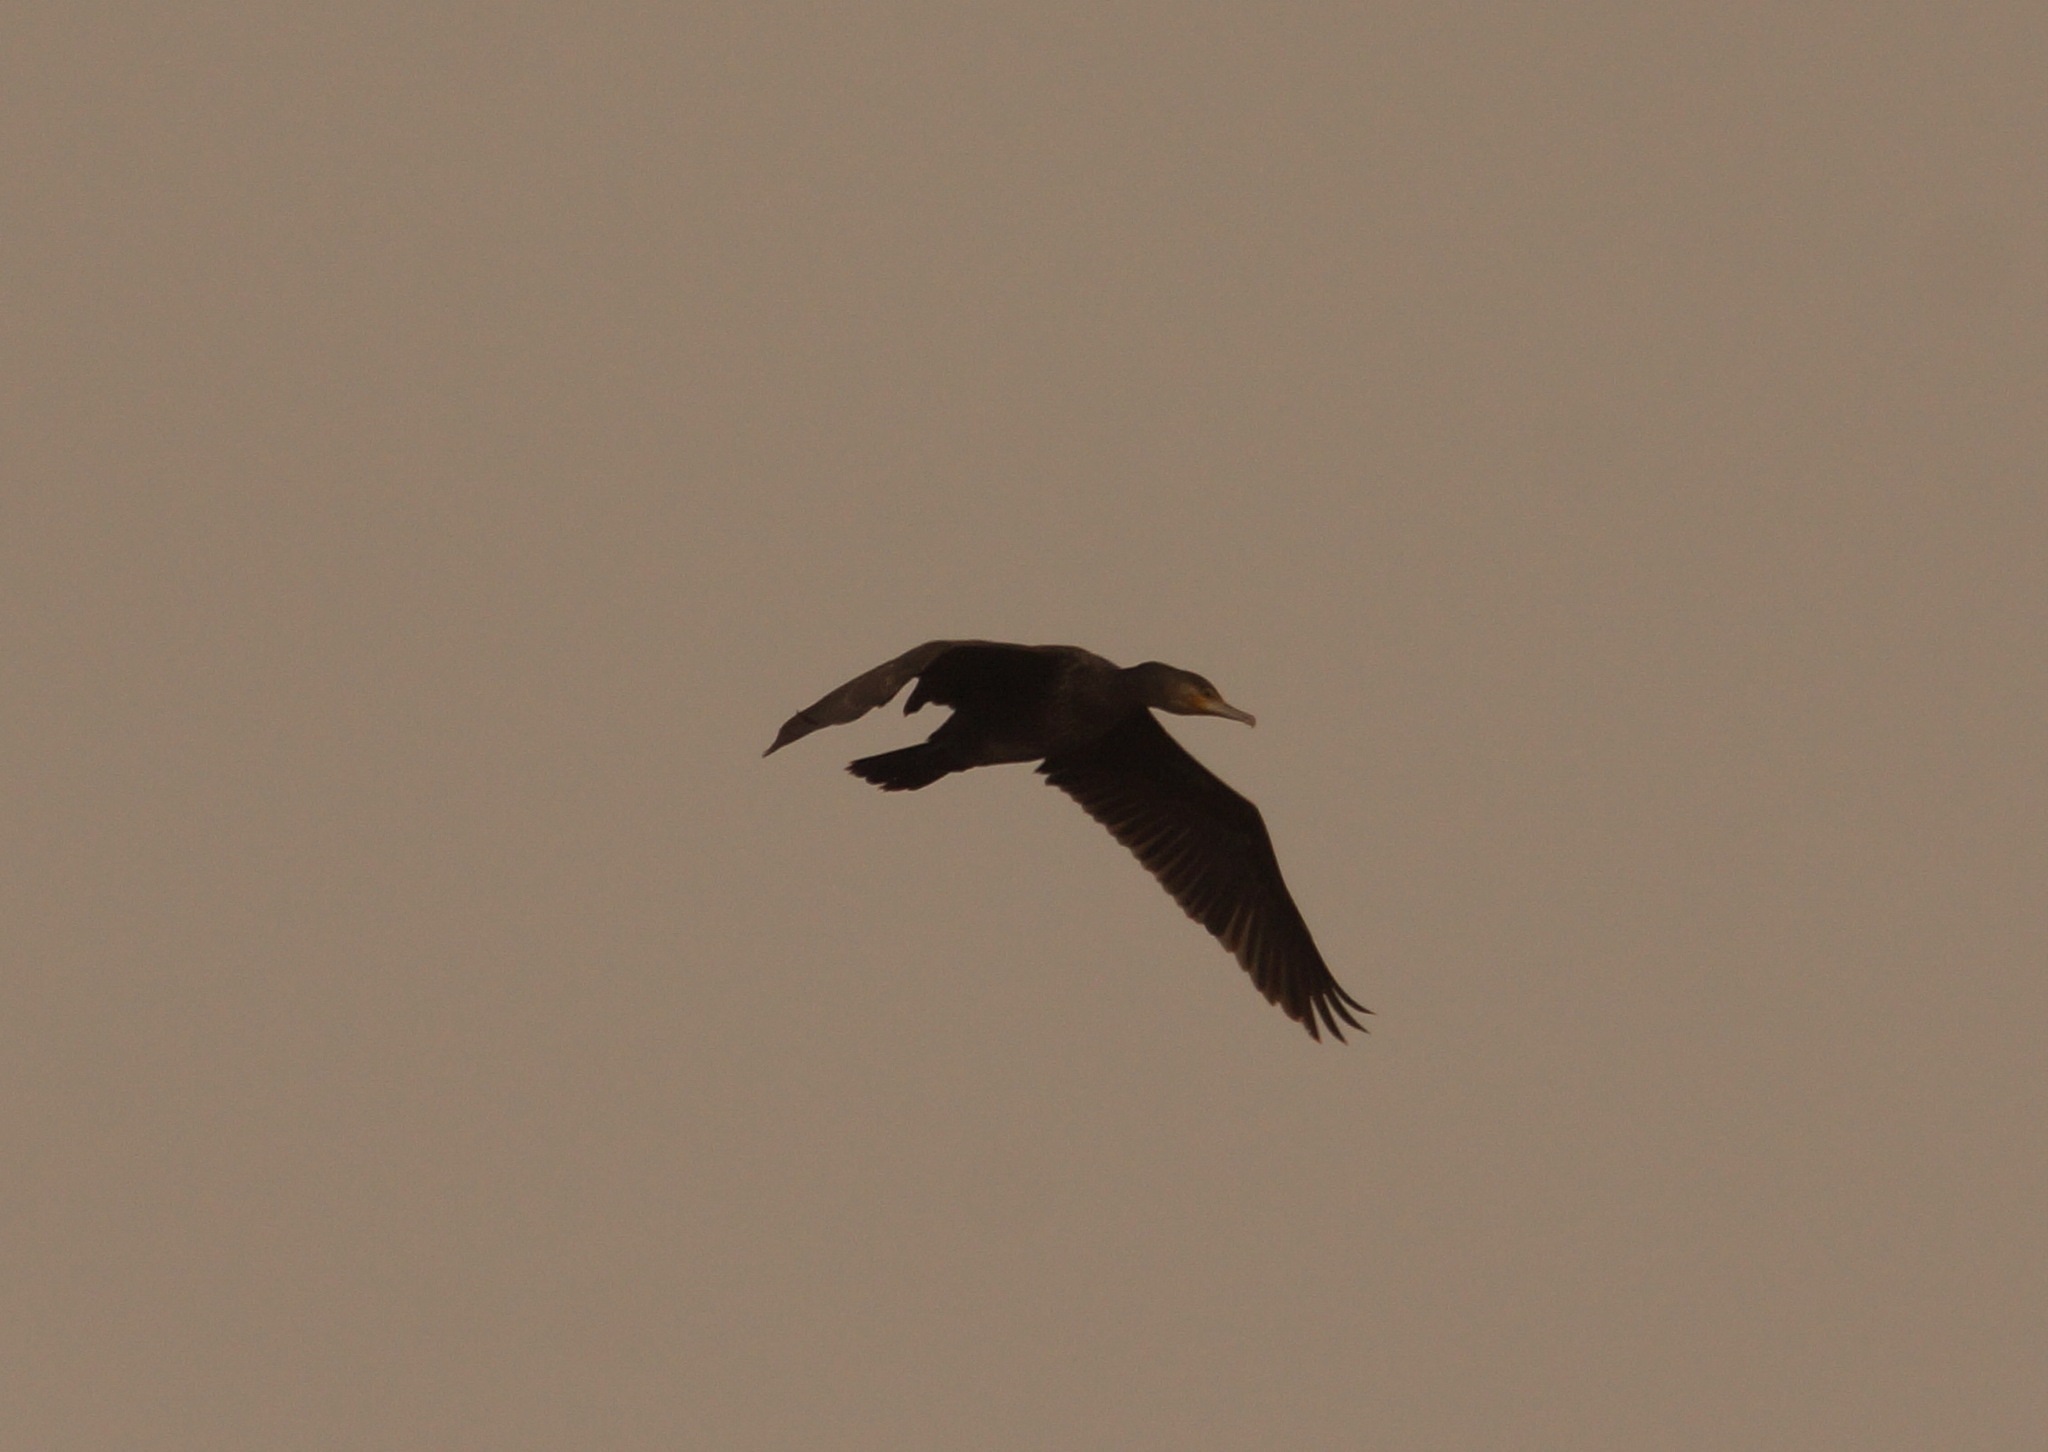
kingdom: Animalia
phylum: Chordata
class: Aves
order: Suliformes
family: Phalacrocoracidae
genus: Phalacrocorax
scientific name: Phalacrocorax carbo
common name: Great cormorant
